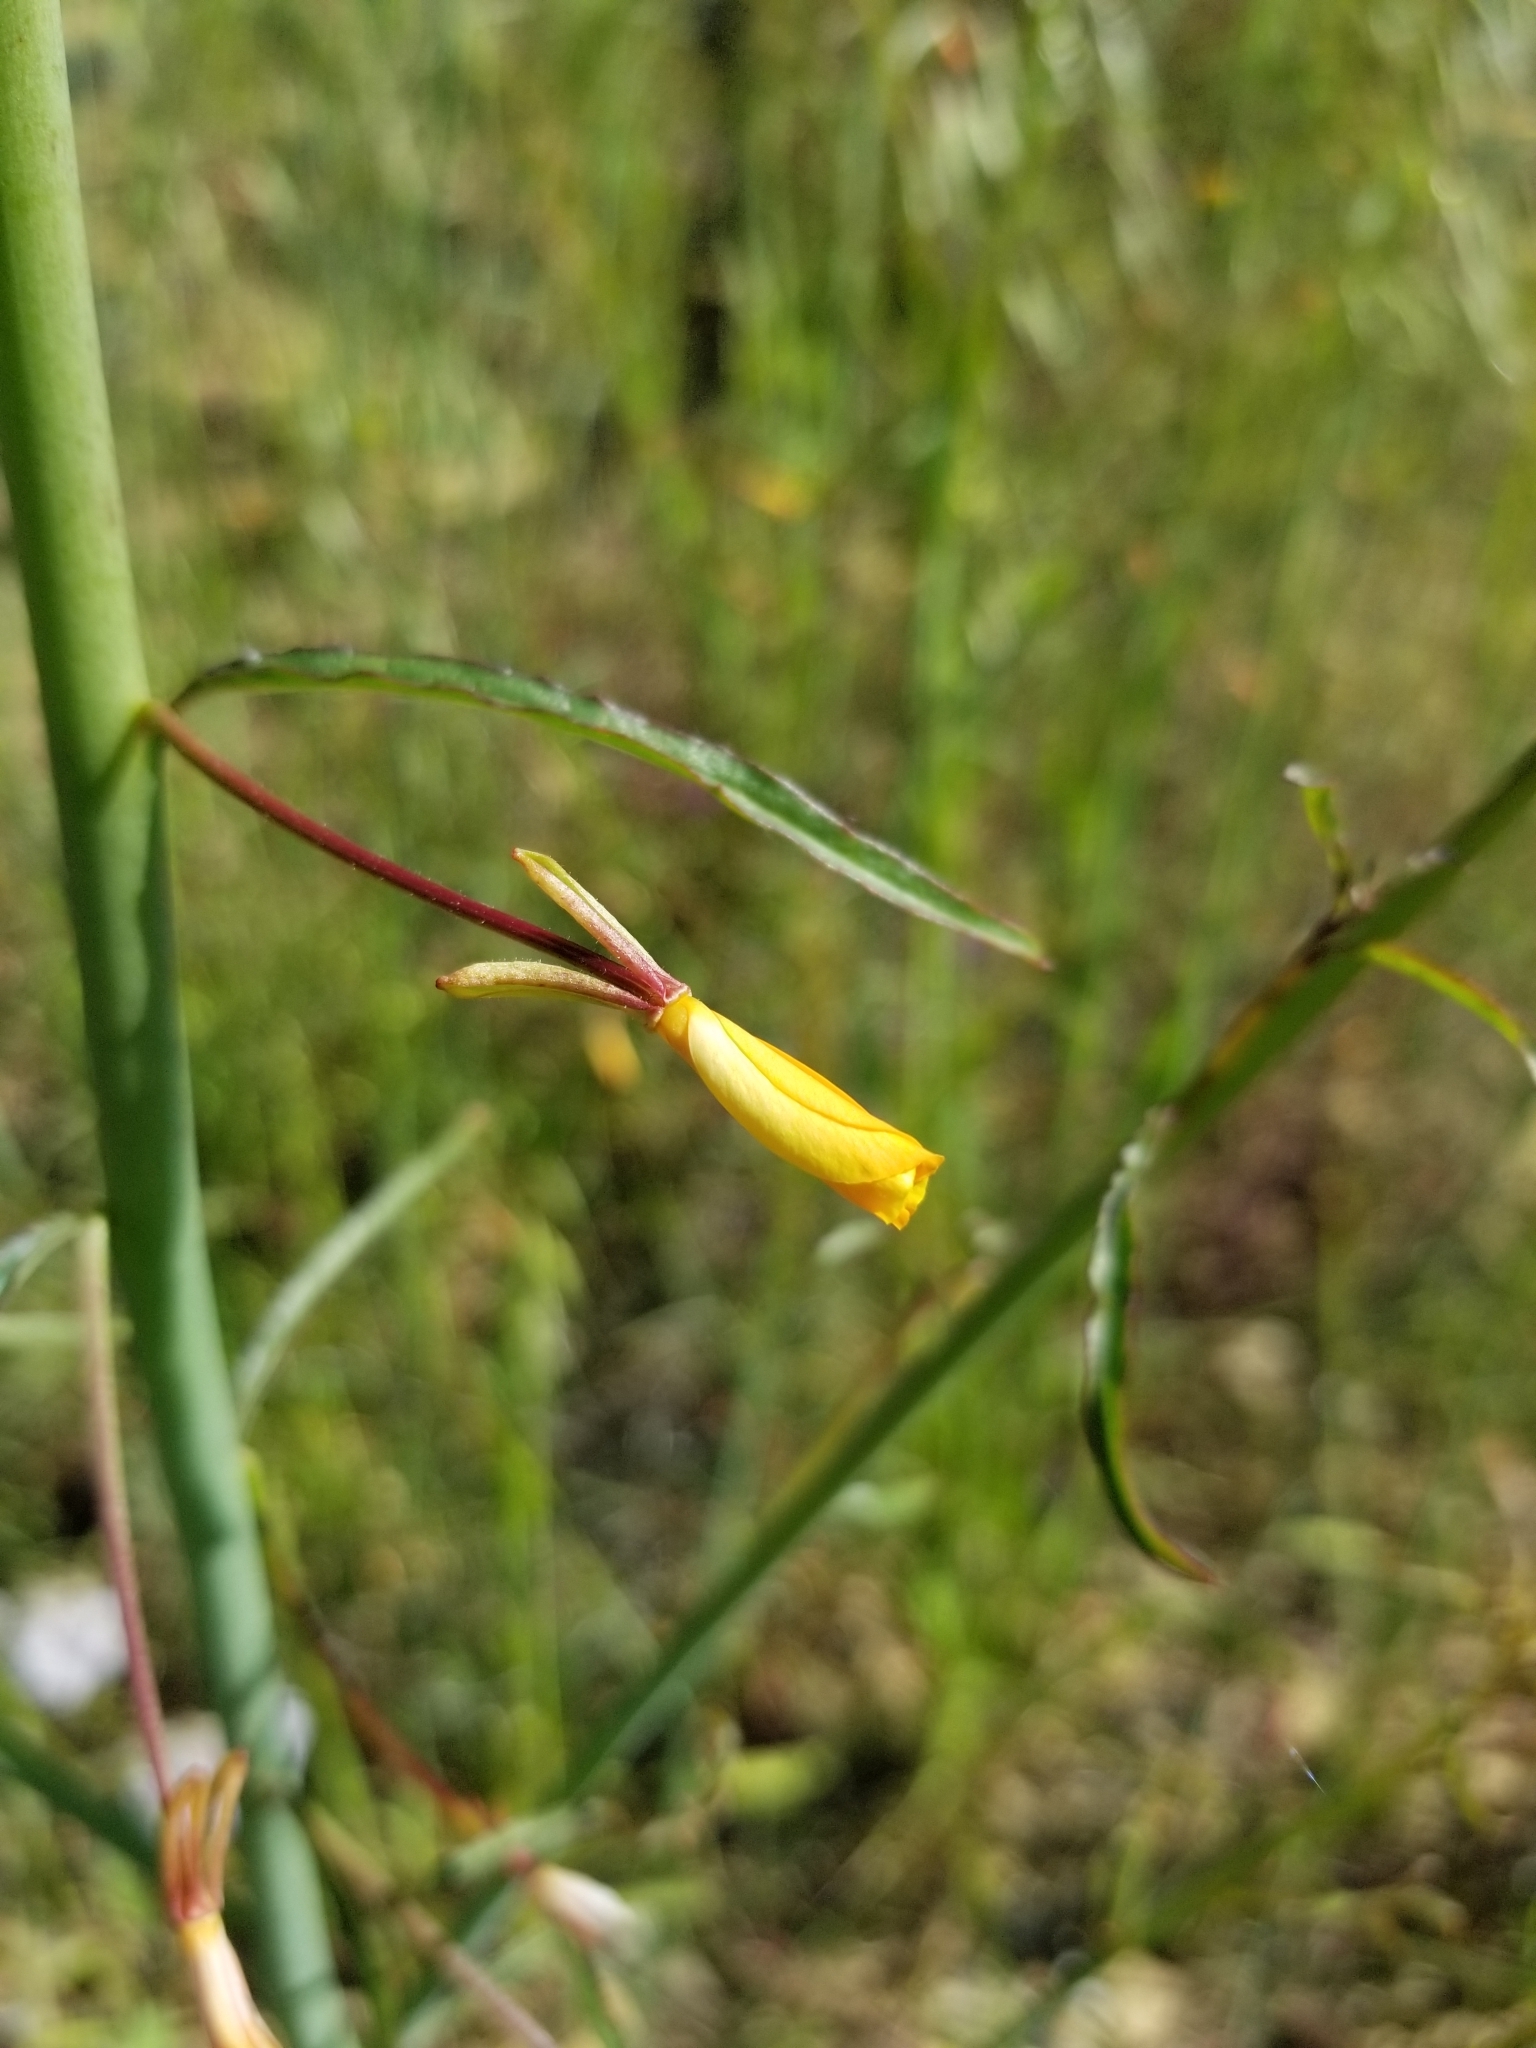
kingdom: Plantae
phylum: Tracheophyta
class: Magnoliopsida
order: Myrtales
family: Onagraceae
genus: Eulobus
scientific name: Eulobus californicus
